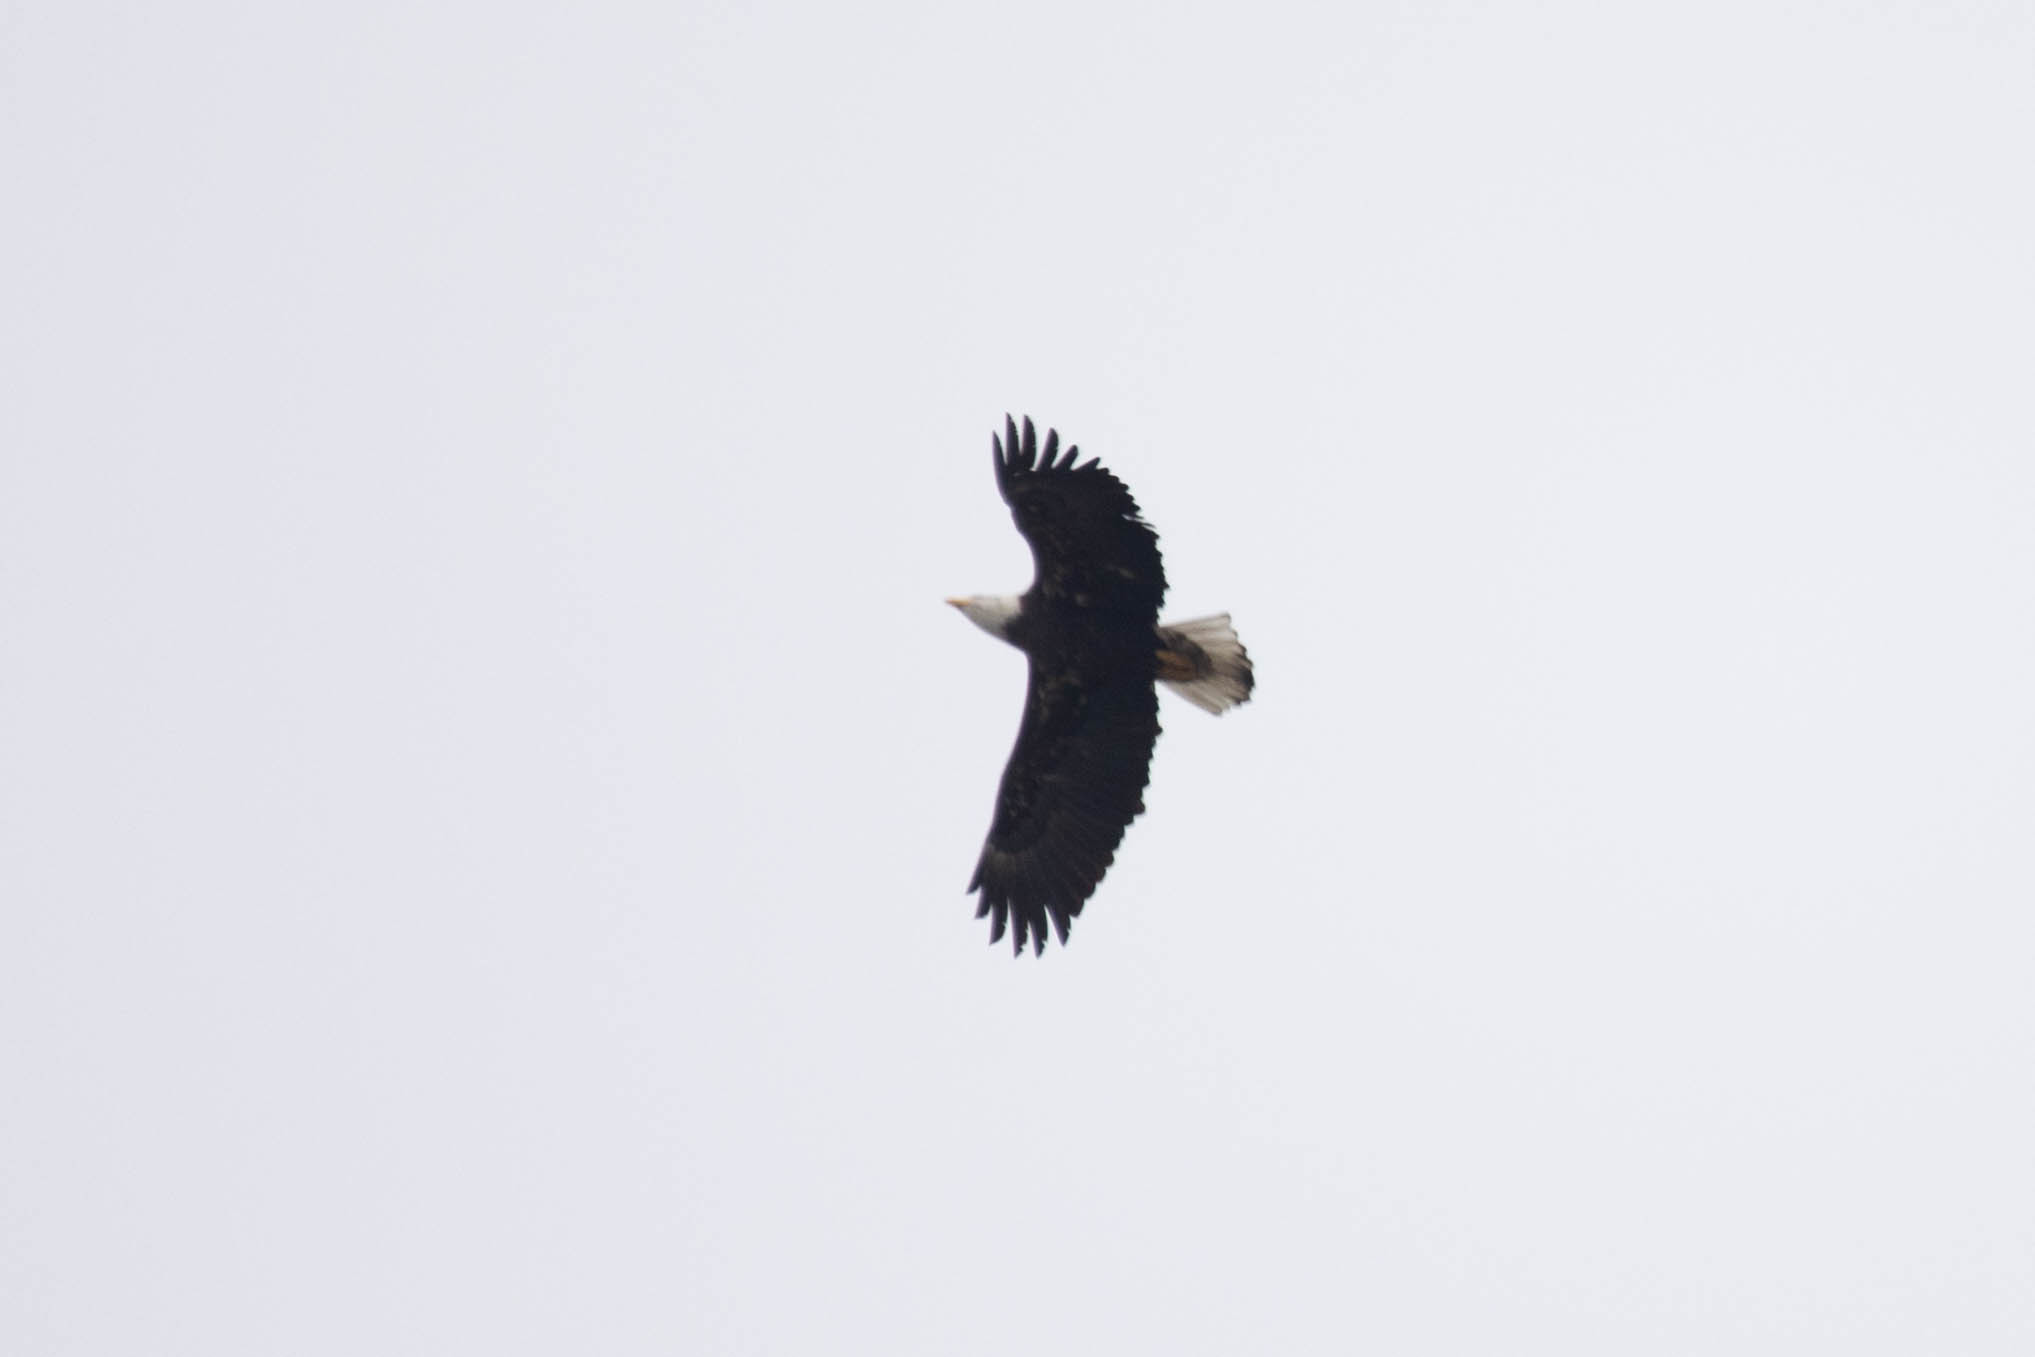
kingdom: Animalia
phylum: Chordata
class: Aves
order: Accipitriformes
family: Accipitridae
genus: Haliaeetus
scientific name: Haliaeetus leucocephalus
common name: Bald eagle
